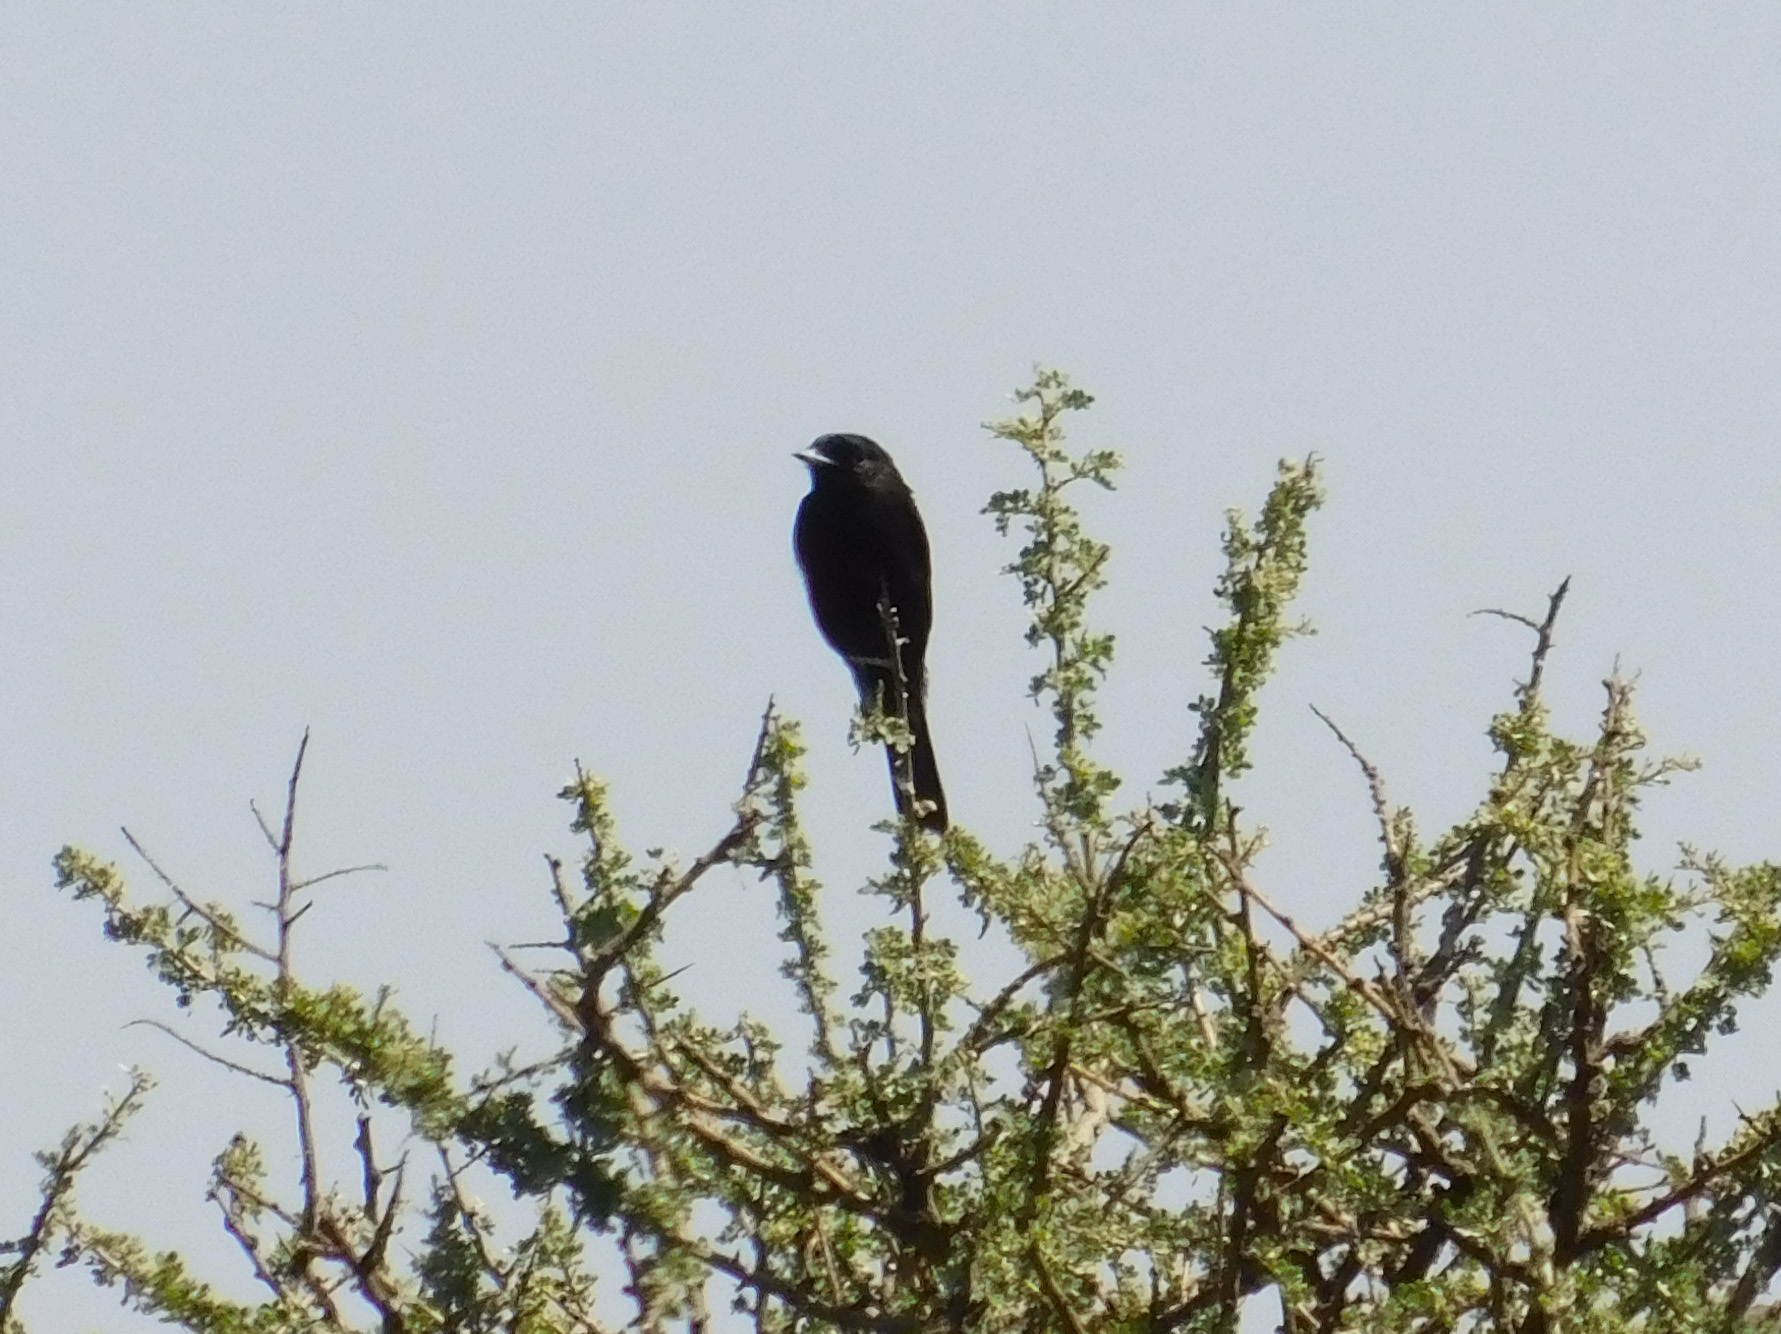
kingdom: Animalia
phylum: Chordata
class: Aves
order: Passeriformes
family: Tyrannidae
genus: Knipolegus
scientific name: Knipolegus hudsoni
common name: Hudson's black tyrant
